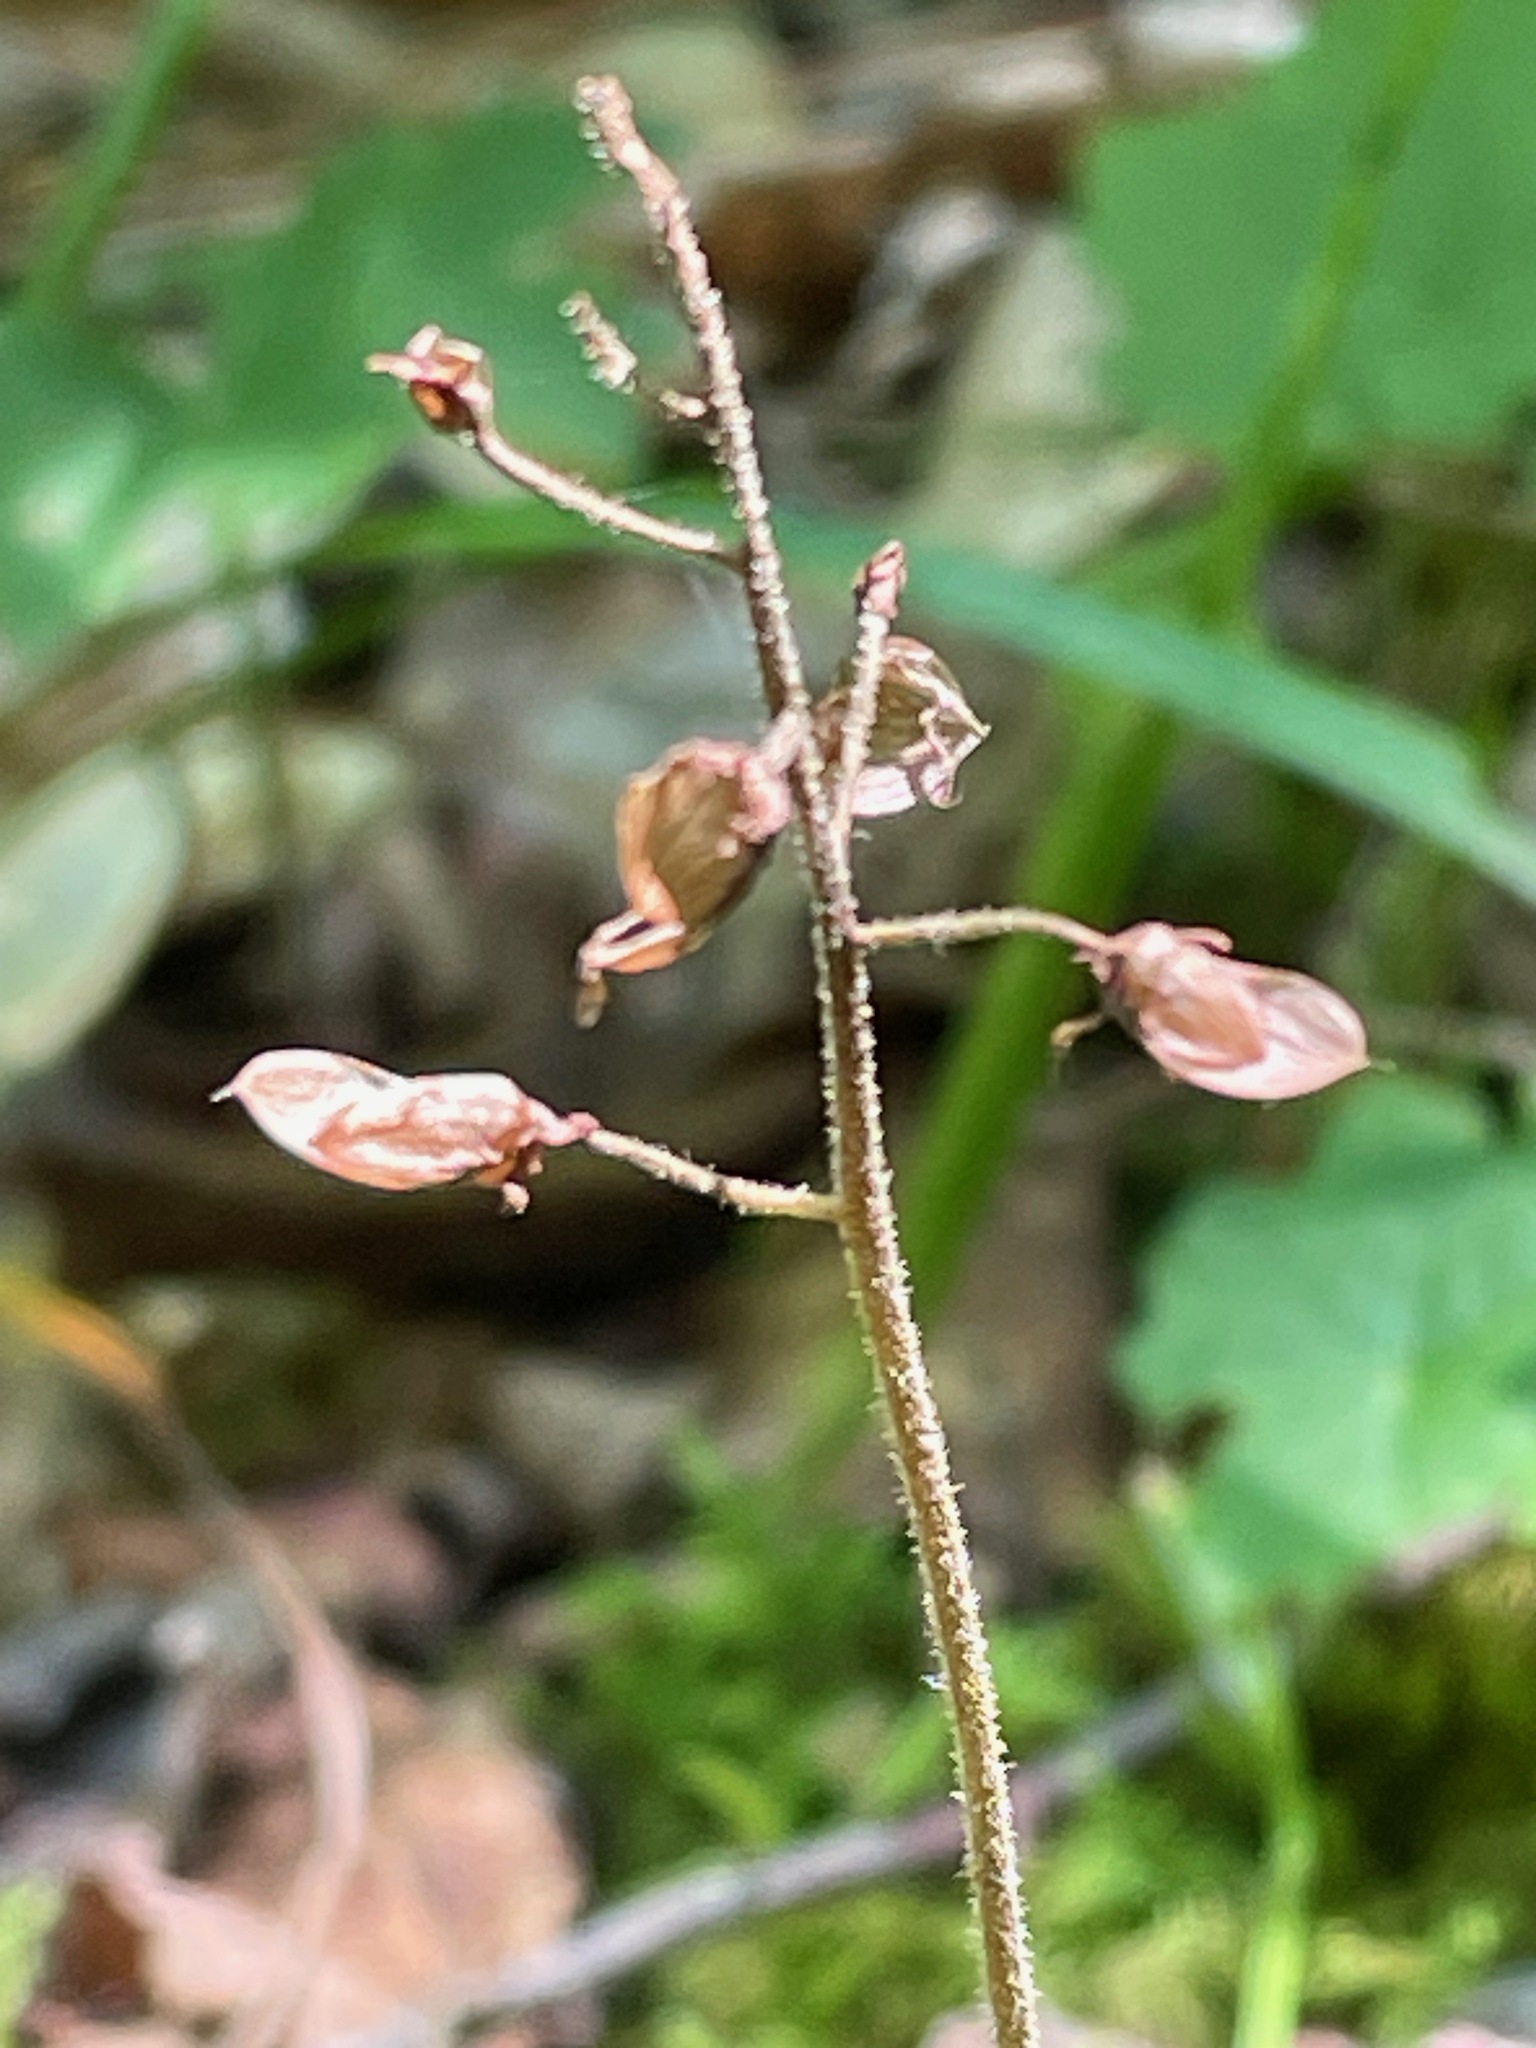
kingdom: Plantae
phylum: Tracheophyta
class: Magnoliopsida
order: Saxifragales
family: Saxifragaceae
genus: Tiarella
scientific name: Tiarella stolonifera
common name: Stoloniferous foamflower
